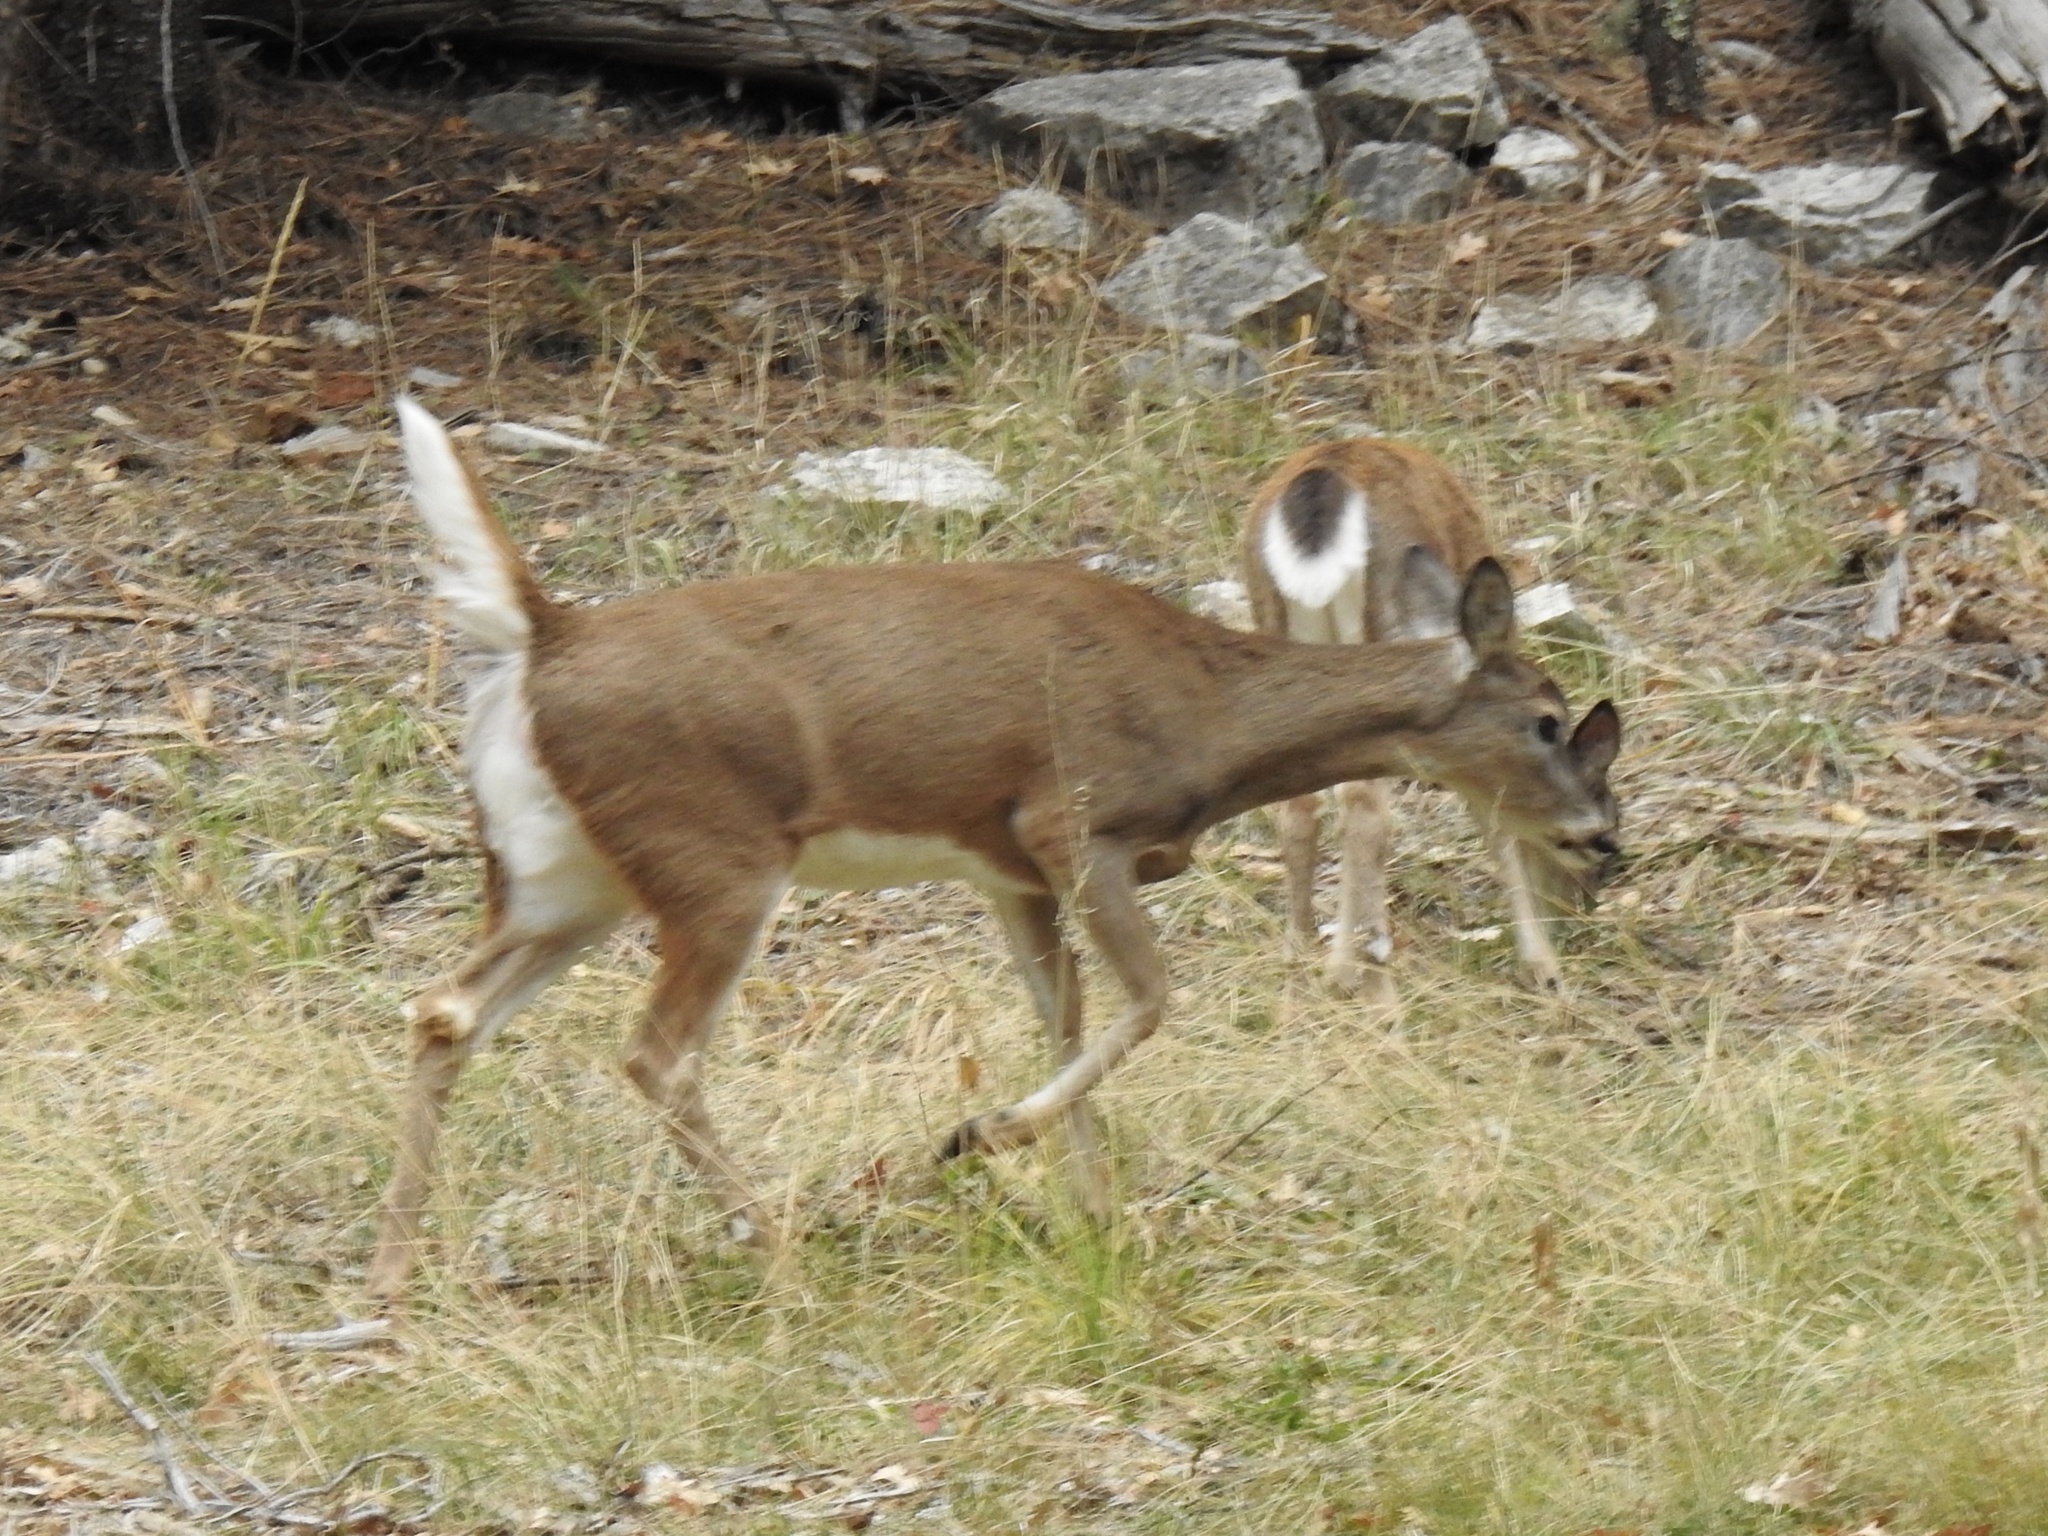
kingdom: Animalia
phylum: Chordata
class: Mammalia
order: Artiodactyla
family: Cervidae
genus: Odocoileus
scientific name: Odocoileus hemionus
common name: Mule deer
